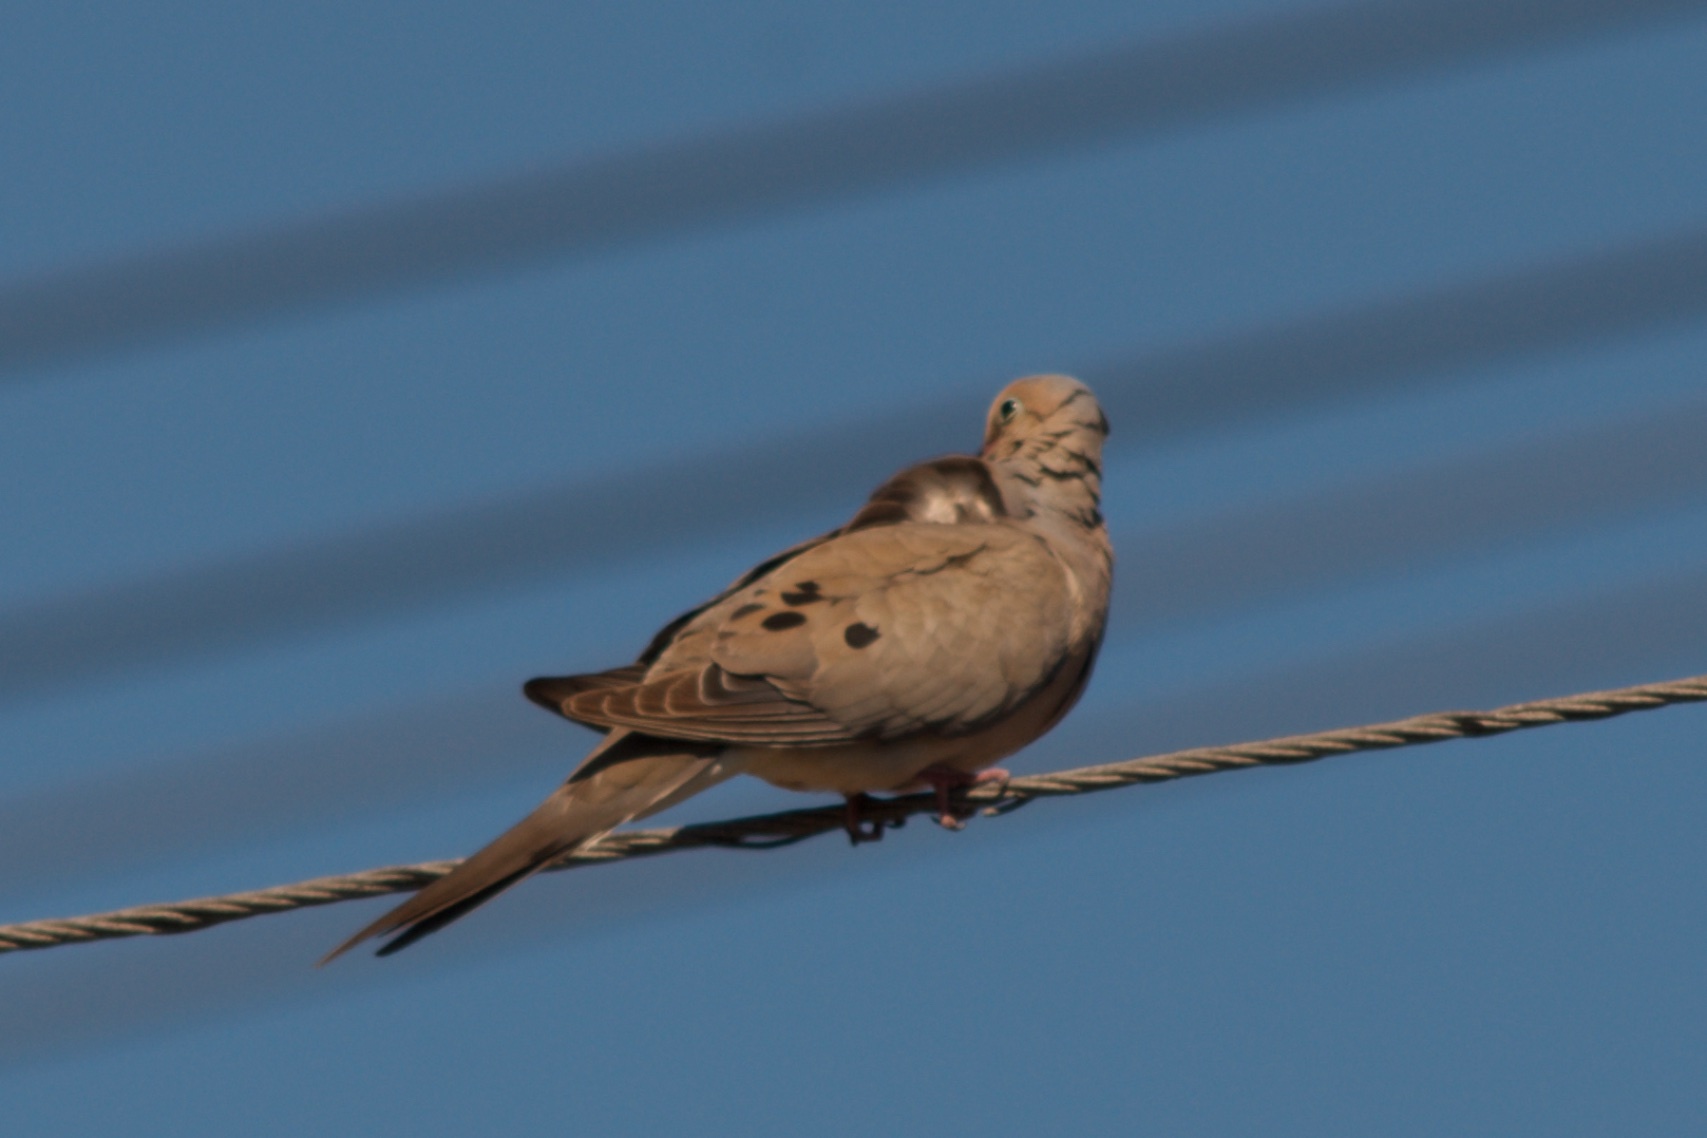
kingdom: Animalia
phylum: Chordata
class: Aves
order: Columbiformes
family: Columbidae
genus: Zenaida
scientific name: Zenaida macroura
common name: Mourning dove
